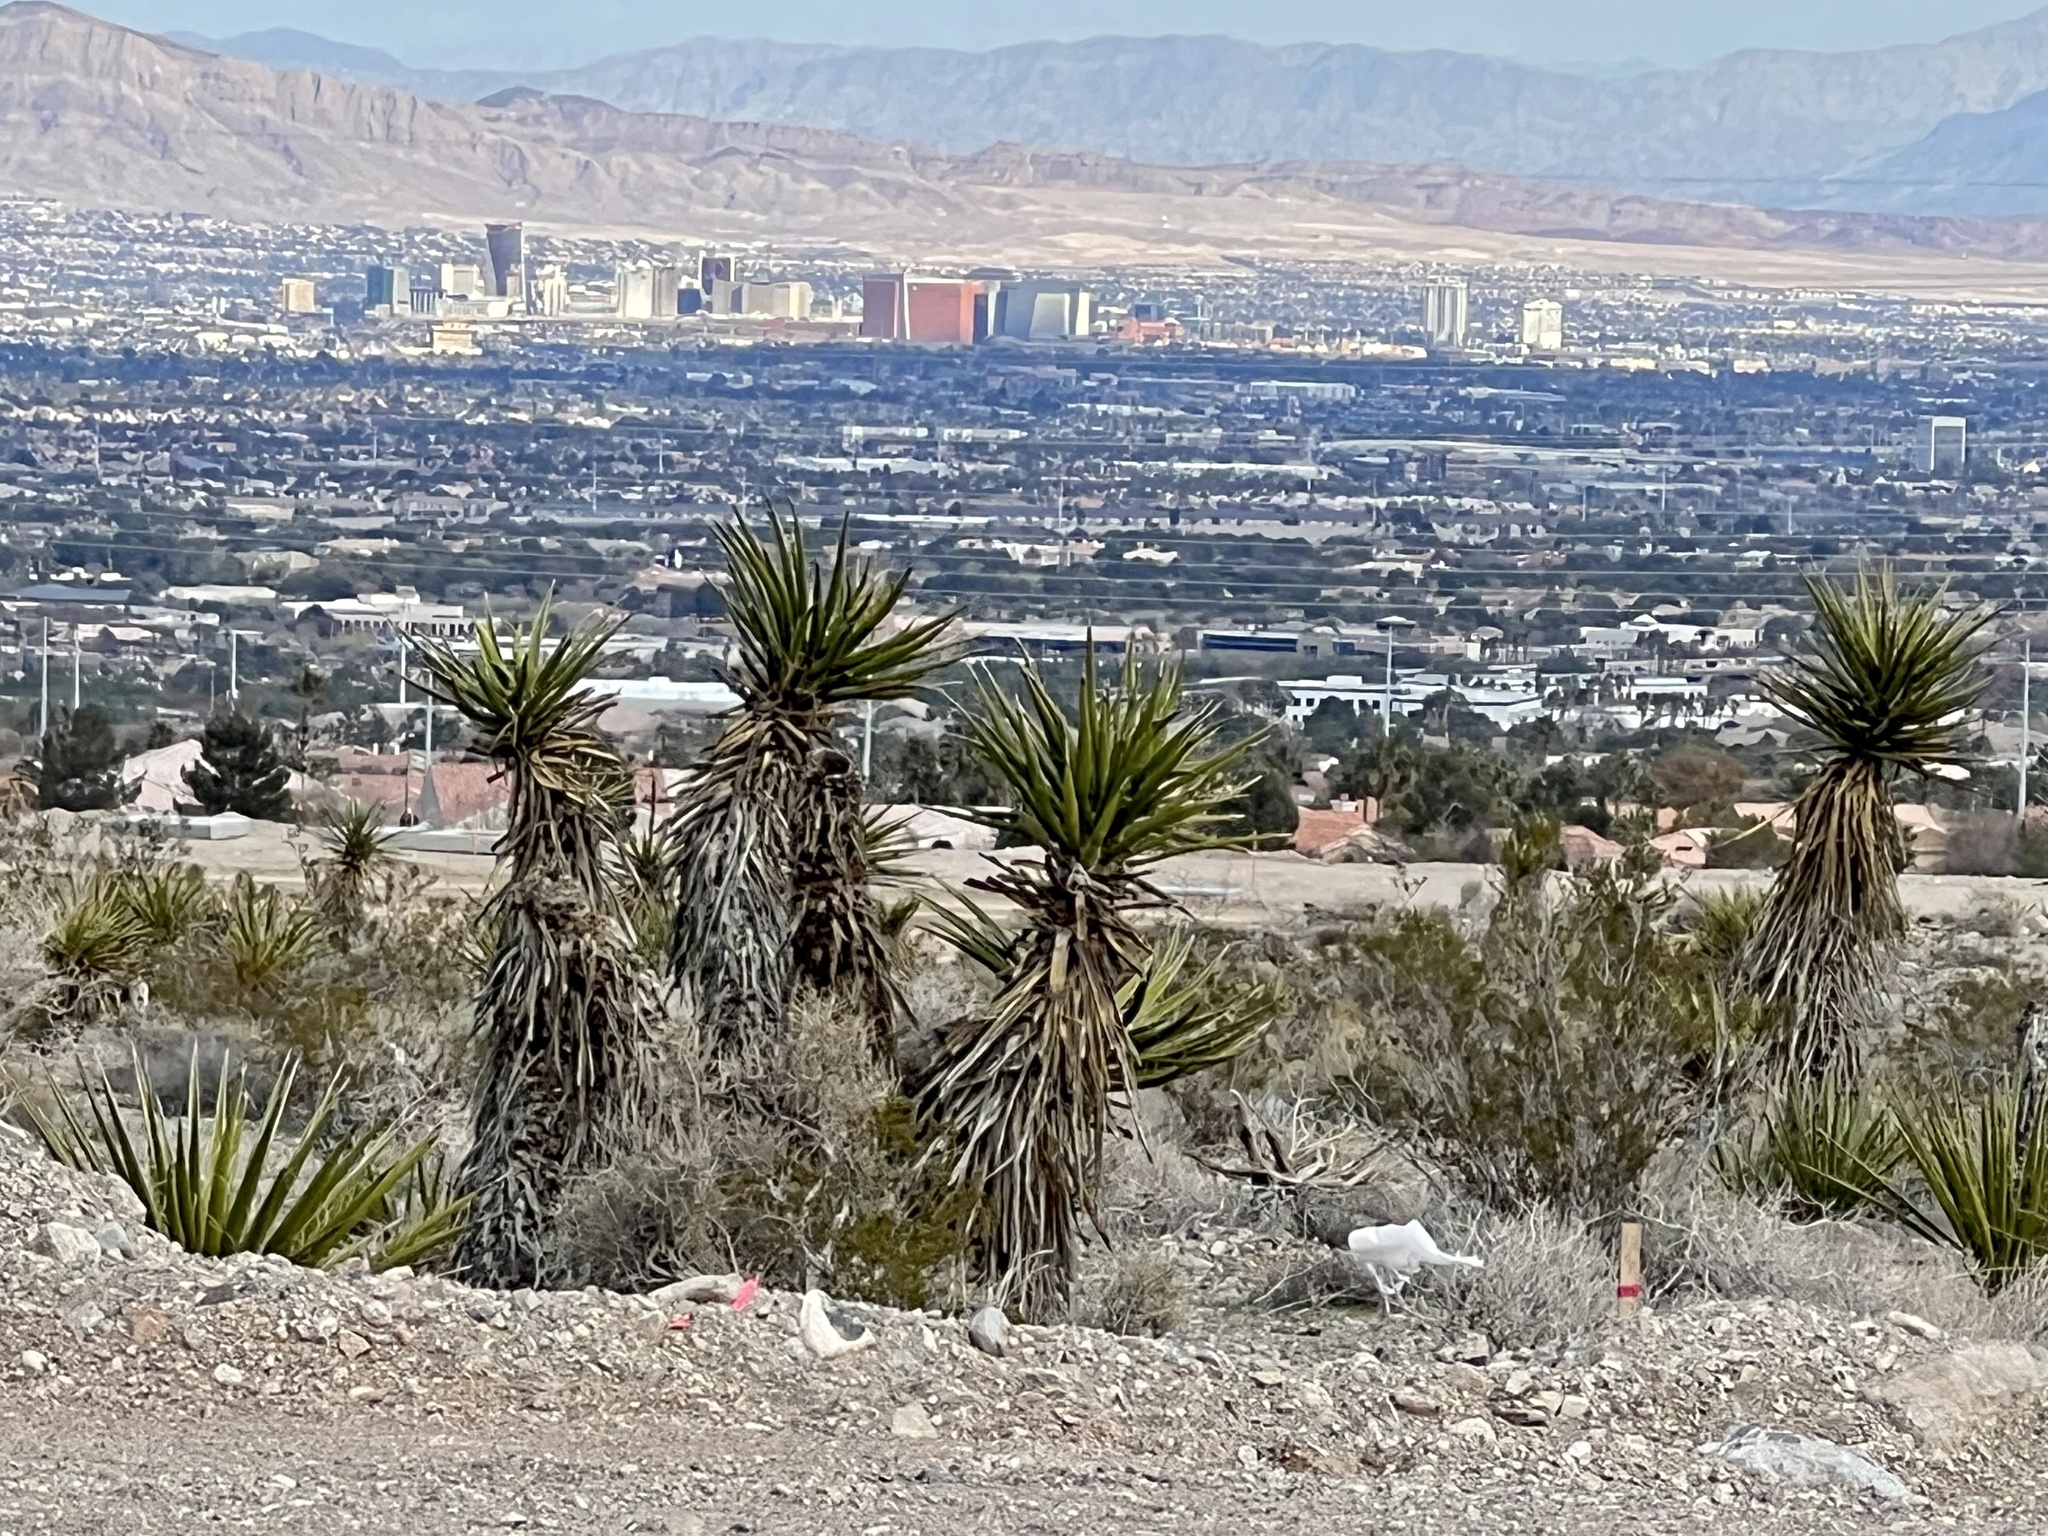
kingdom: Plantae
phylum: Tracheophyta
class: Liliopsida
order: Asparagales
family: Asparagaceae
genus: Yucca
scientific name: Yucca schidigera
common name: Mojave yucca
